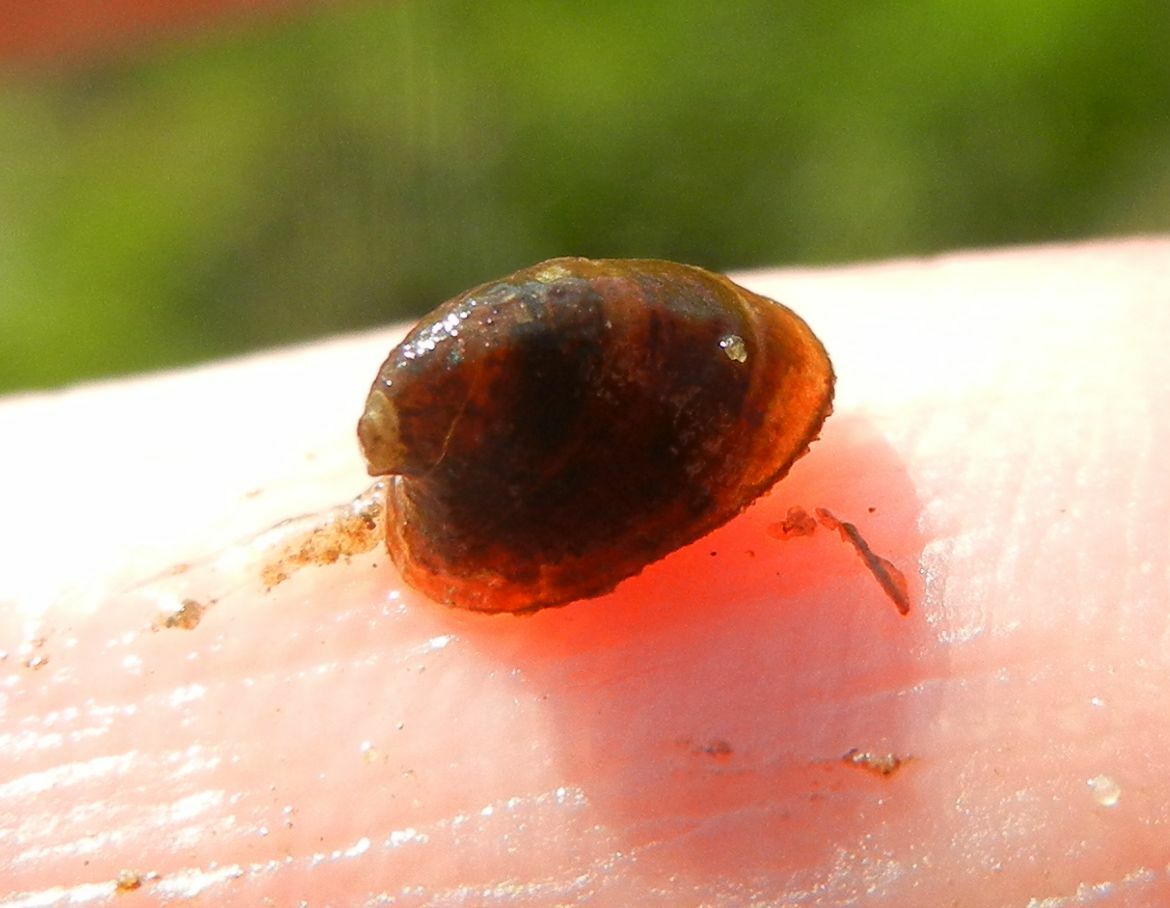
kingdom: Animalia
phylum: Mollusca
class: Gastropoda
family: Planorbidae
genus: Ancylus
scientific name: Ancylus fluviatilis
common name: River limpet
